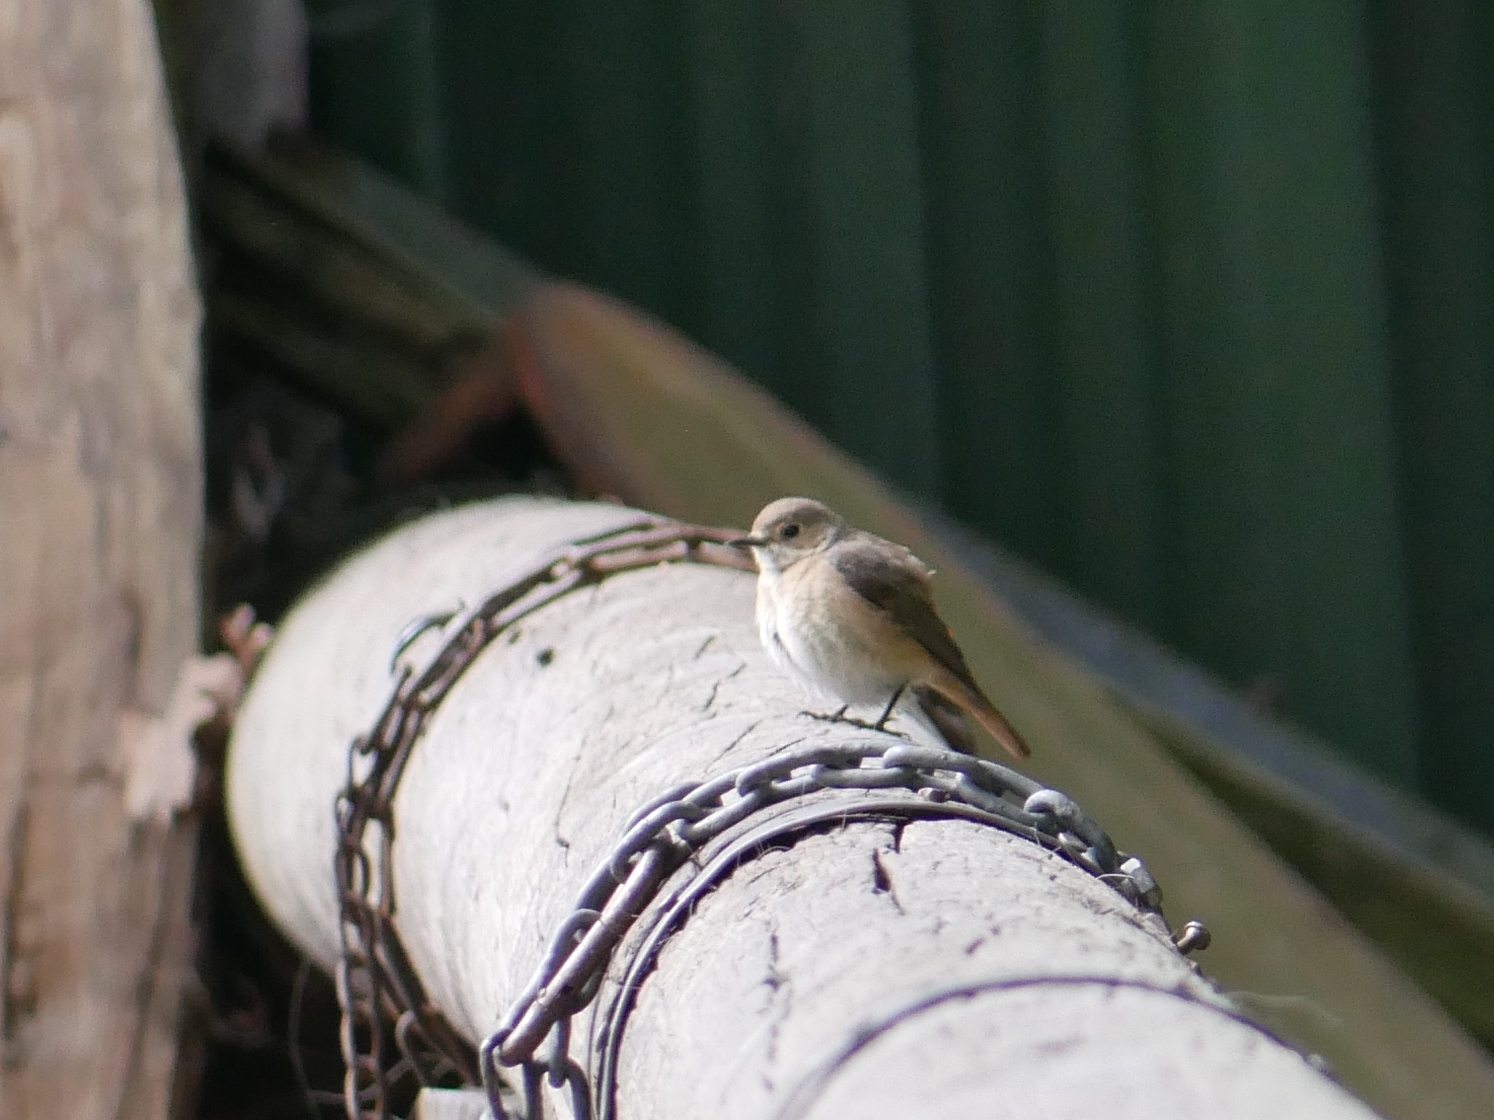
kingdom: Animalia
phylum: Chordata
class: Aves
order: Passeriformes
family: Muscicapidae
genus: Phoenicurus
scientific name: Phoenicurus phoenicurus
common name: Common redstart
